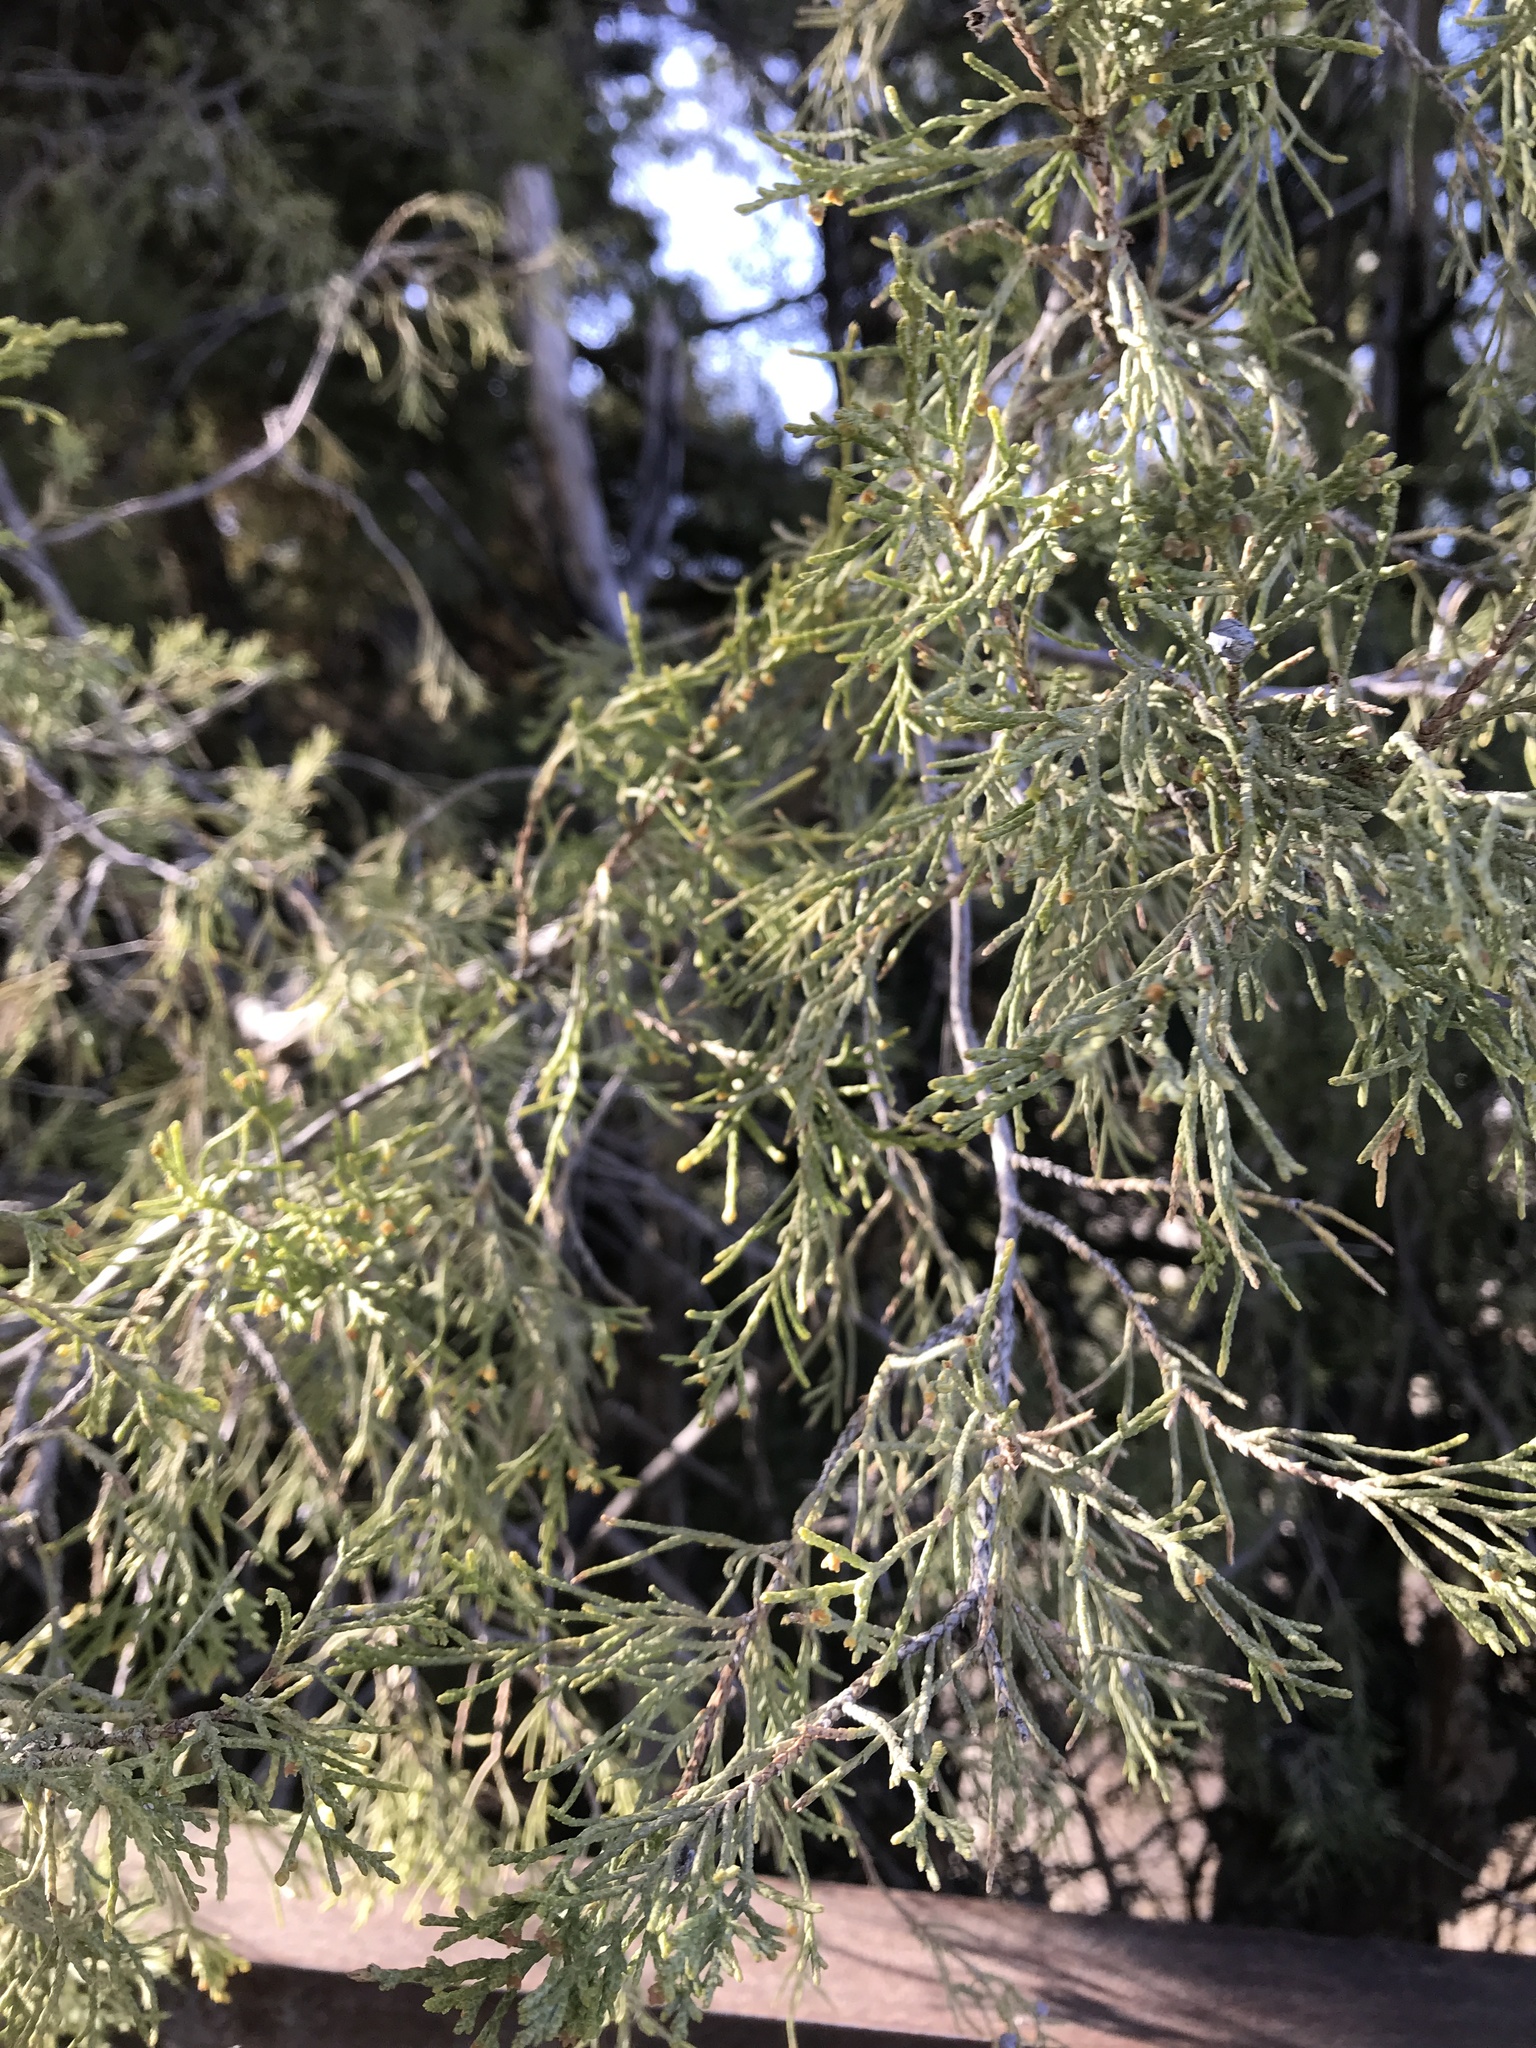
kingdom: Plantae
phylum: Tracheophyta
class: Pinopsida
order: Pinales
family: Cupressaceae
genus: Juniperus
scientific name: Juniperus scopulorum
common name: Rocky mountain juniper
